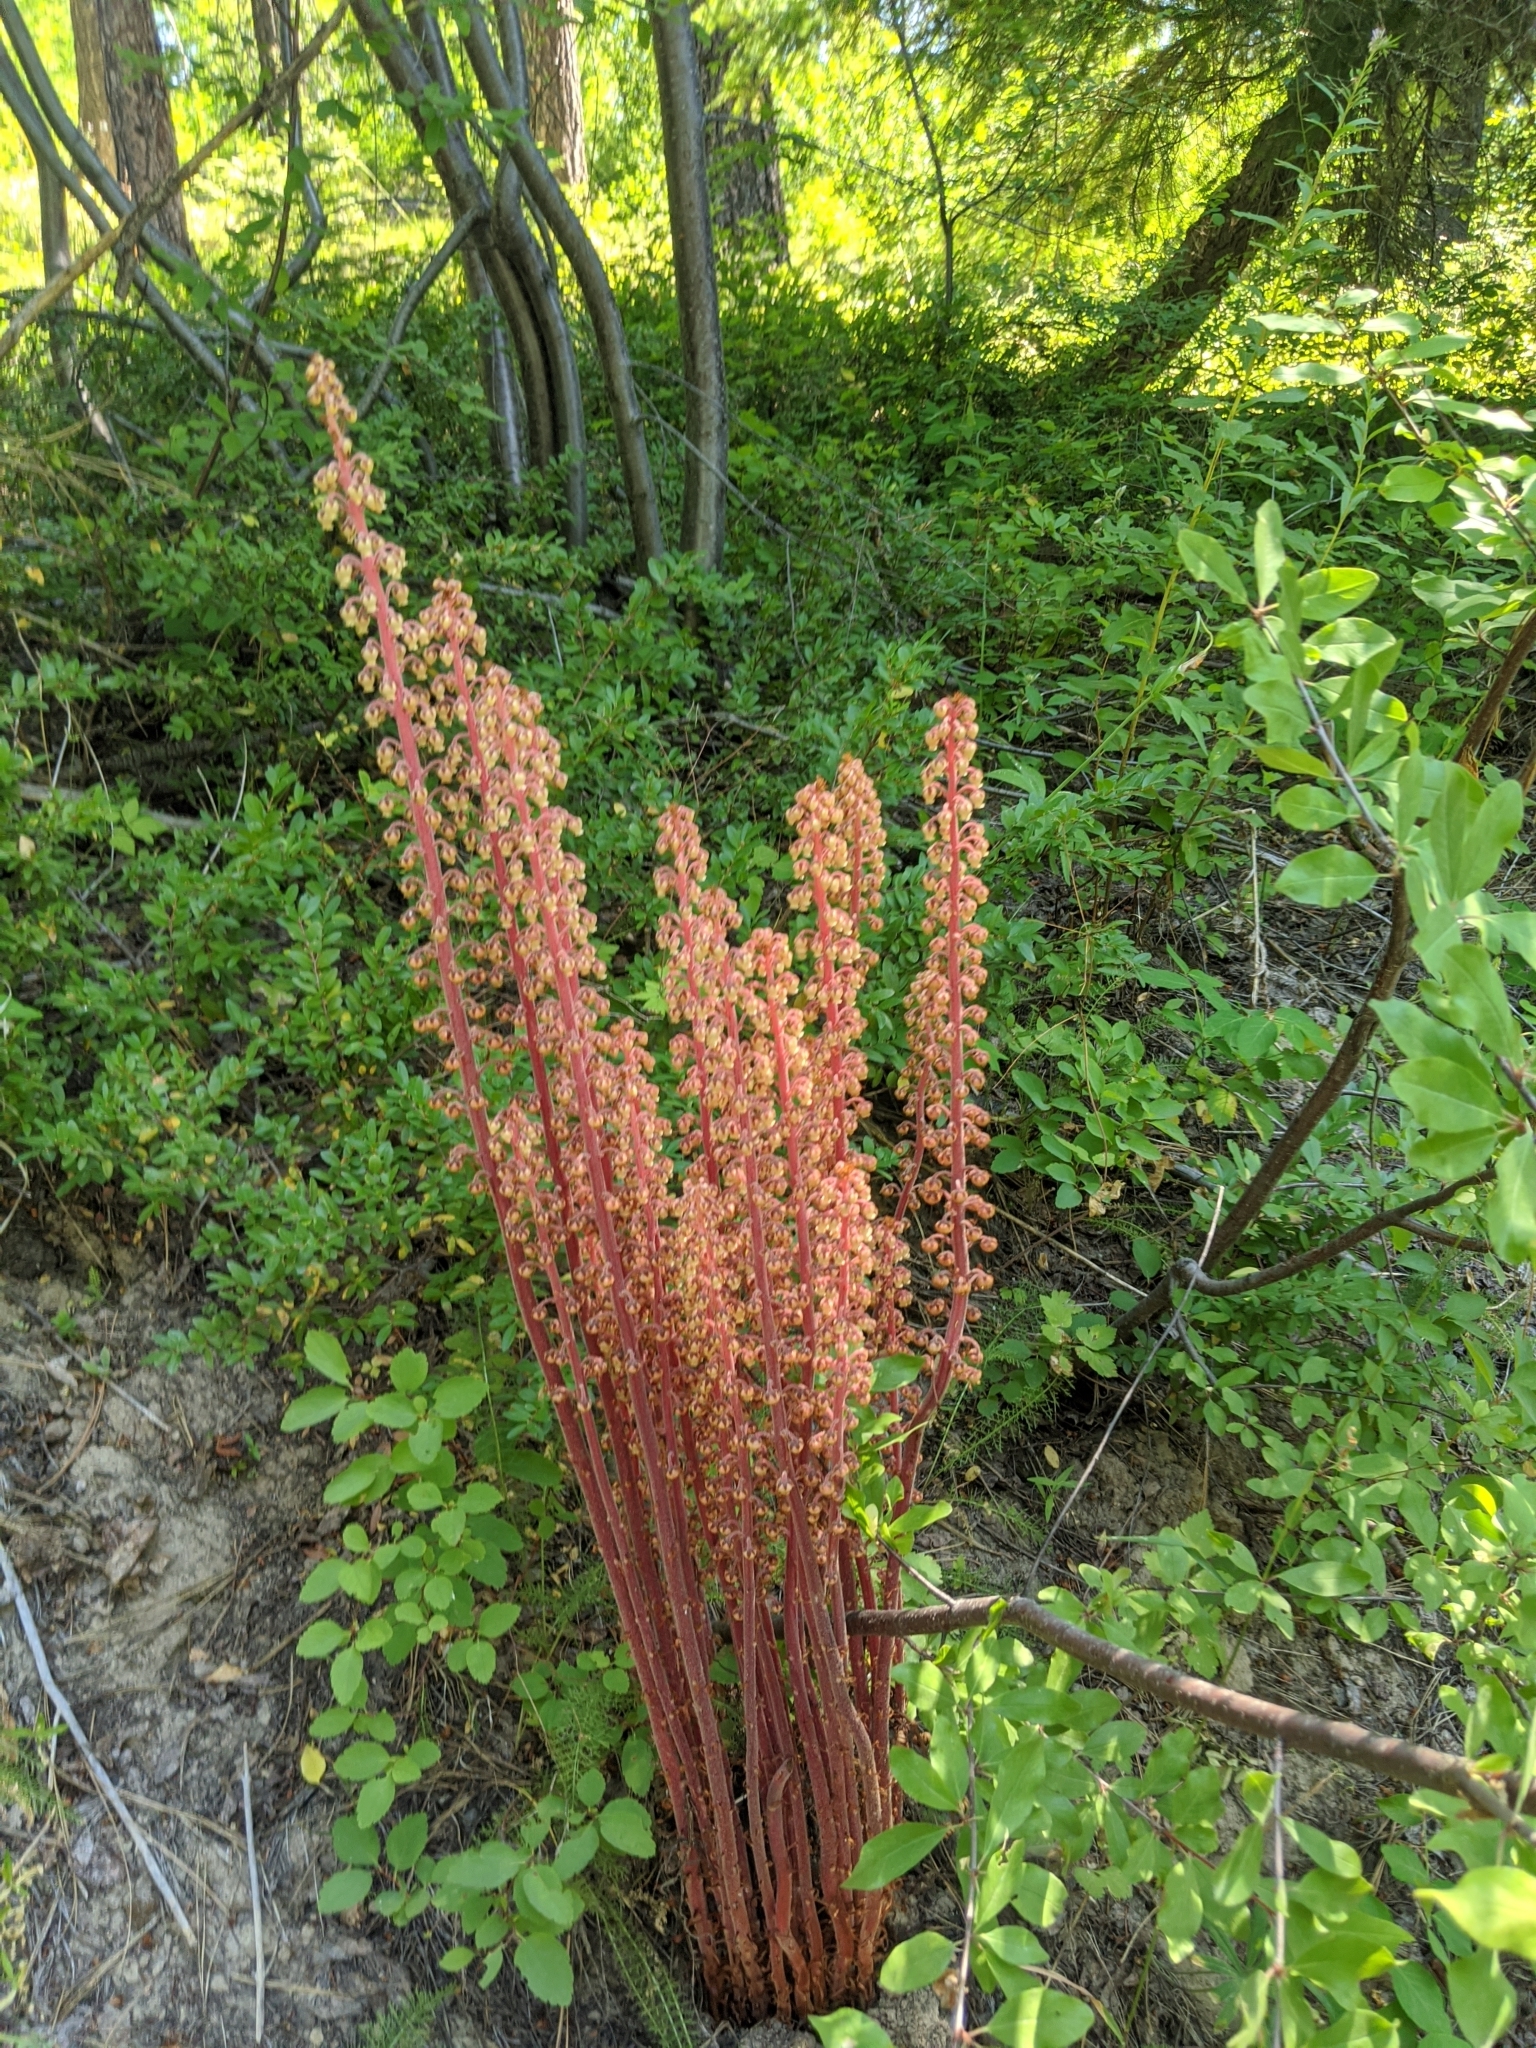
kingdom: Plantae
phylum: Tracheophyta
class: Magnoliopsida
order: Ericales
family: Ericaceae
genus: Pterospora
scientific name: Pterospora andromedea
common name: Giant bird's-nest
